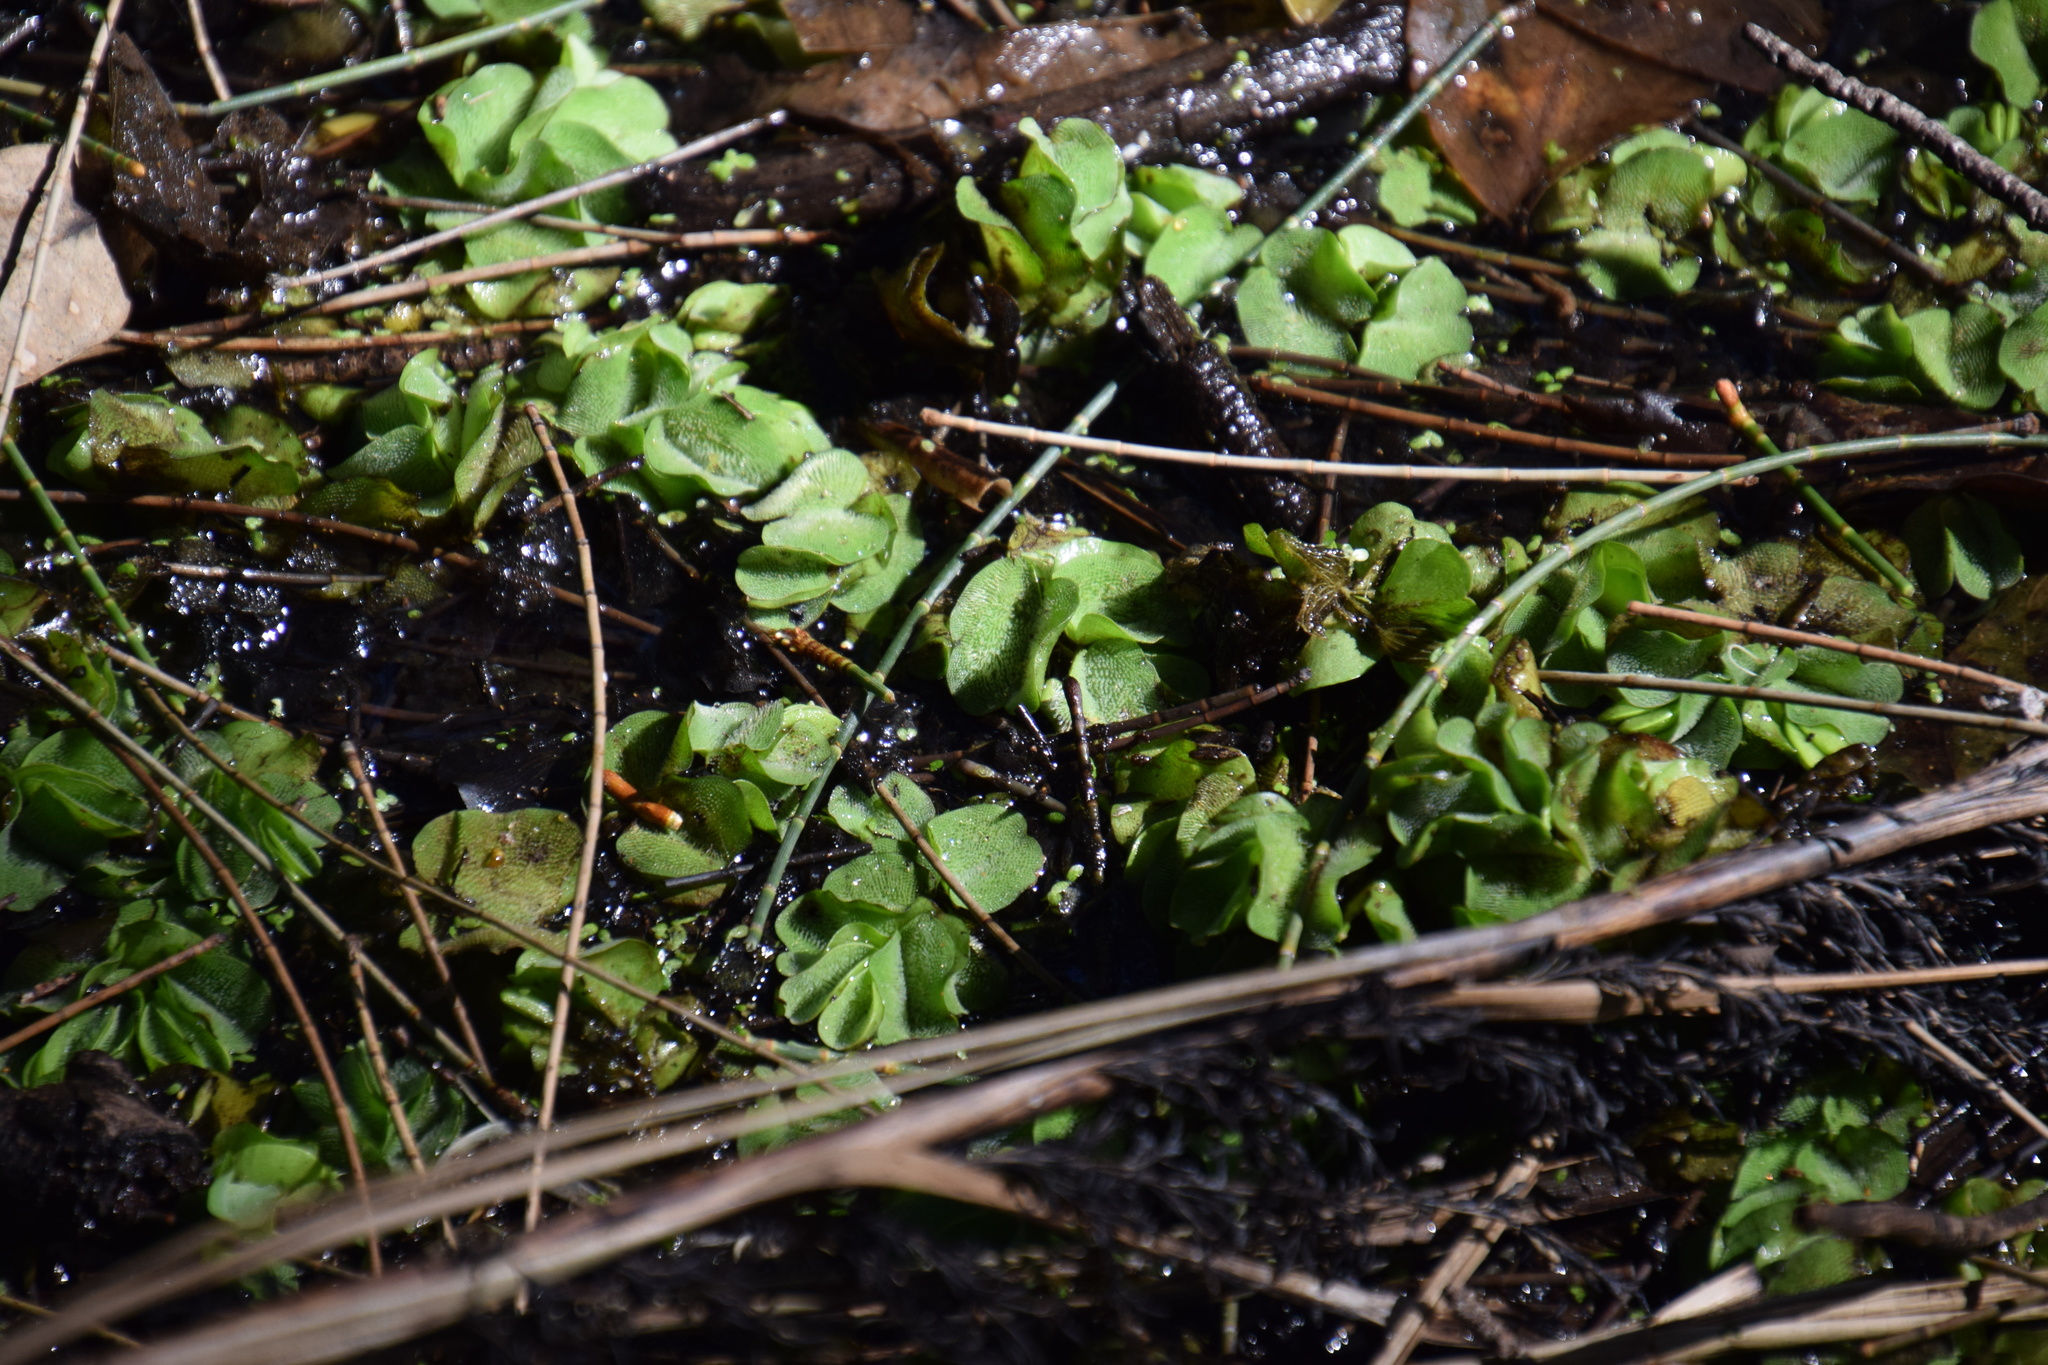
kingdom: Plantae
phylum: Tracheophyta
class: Polypodiopsida
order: Salviniales
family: Salviniaceae
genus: Salvinia
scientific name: Salvinia molesta
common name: Kariba weed
